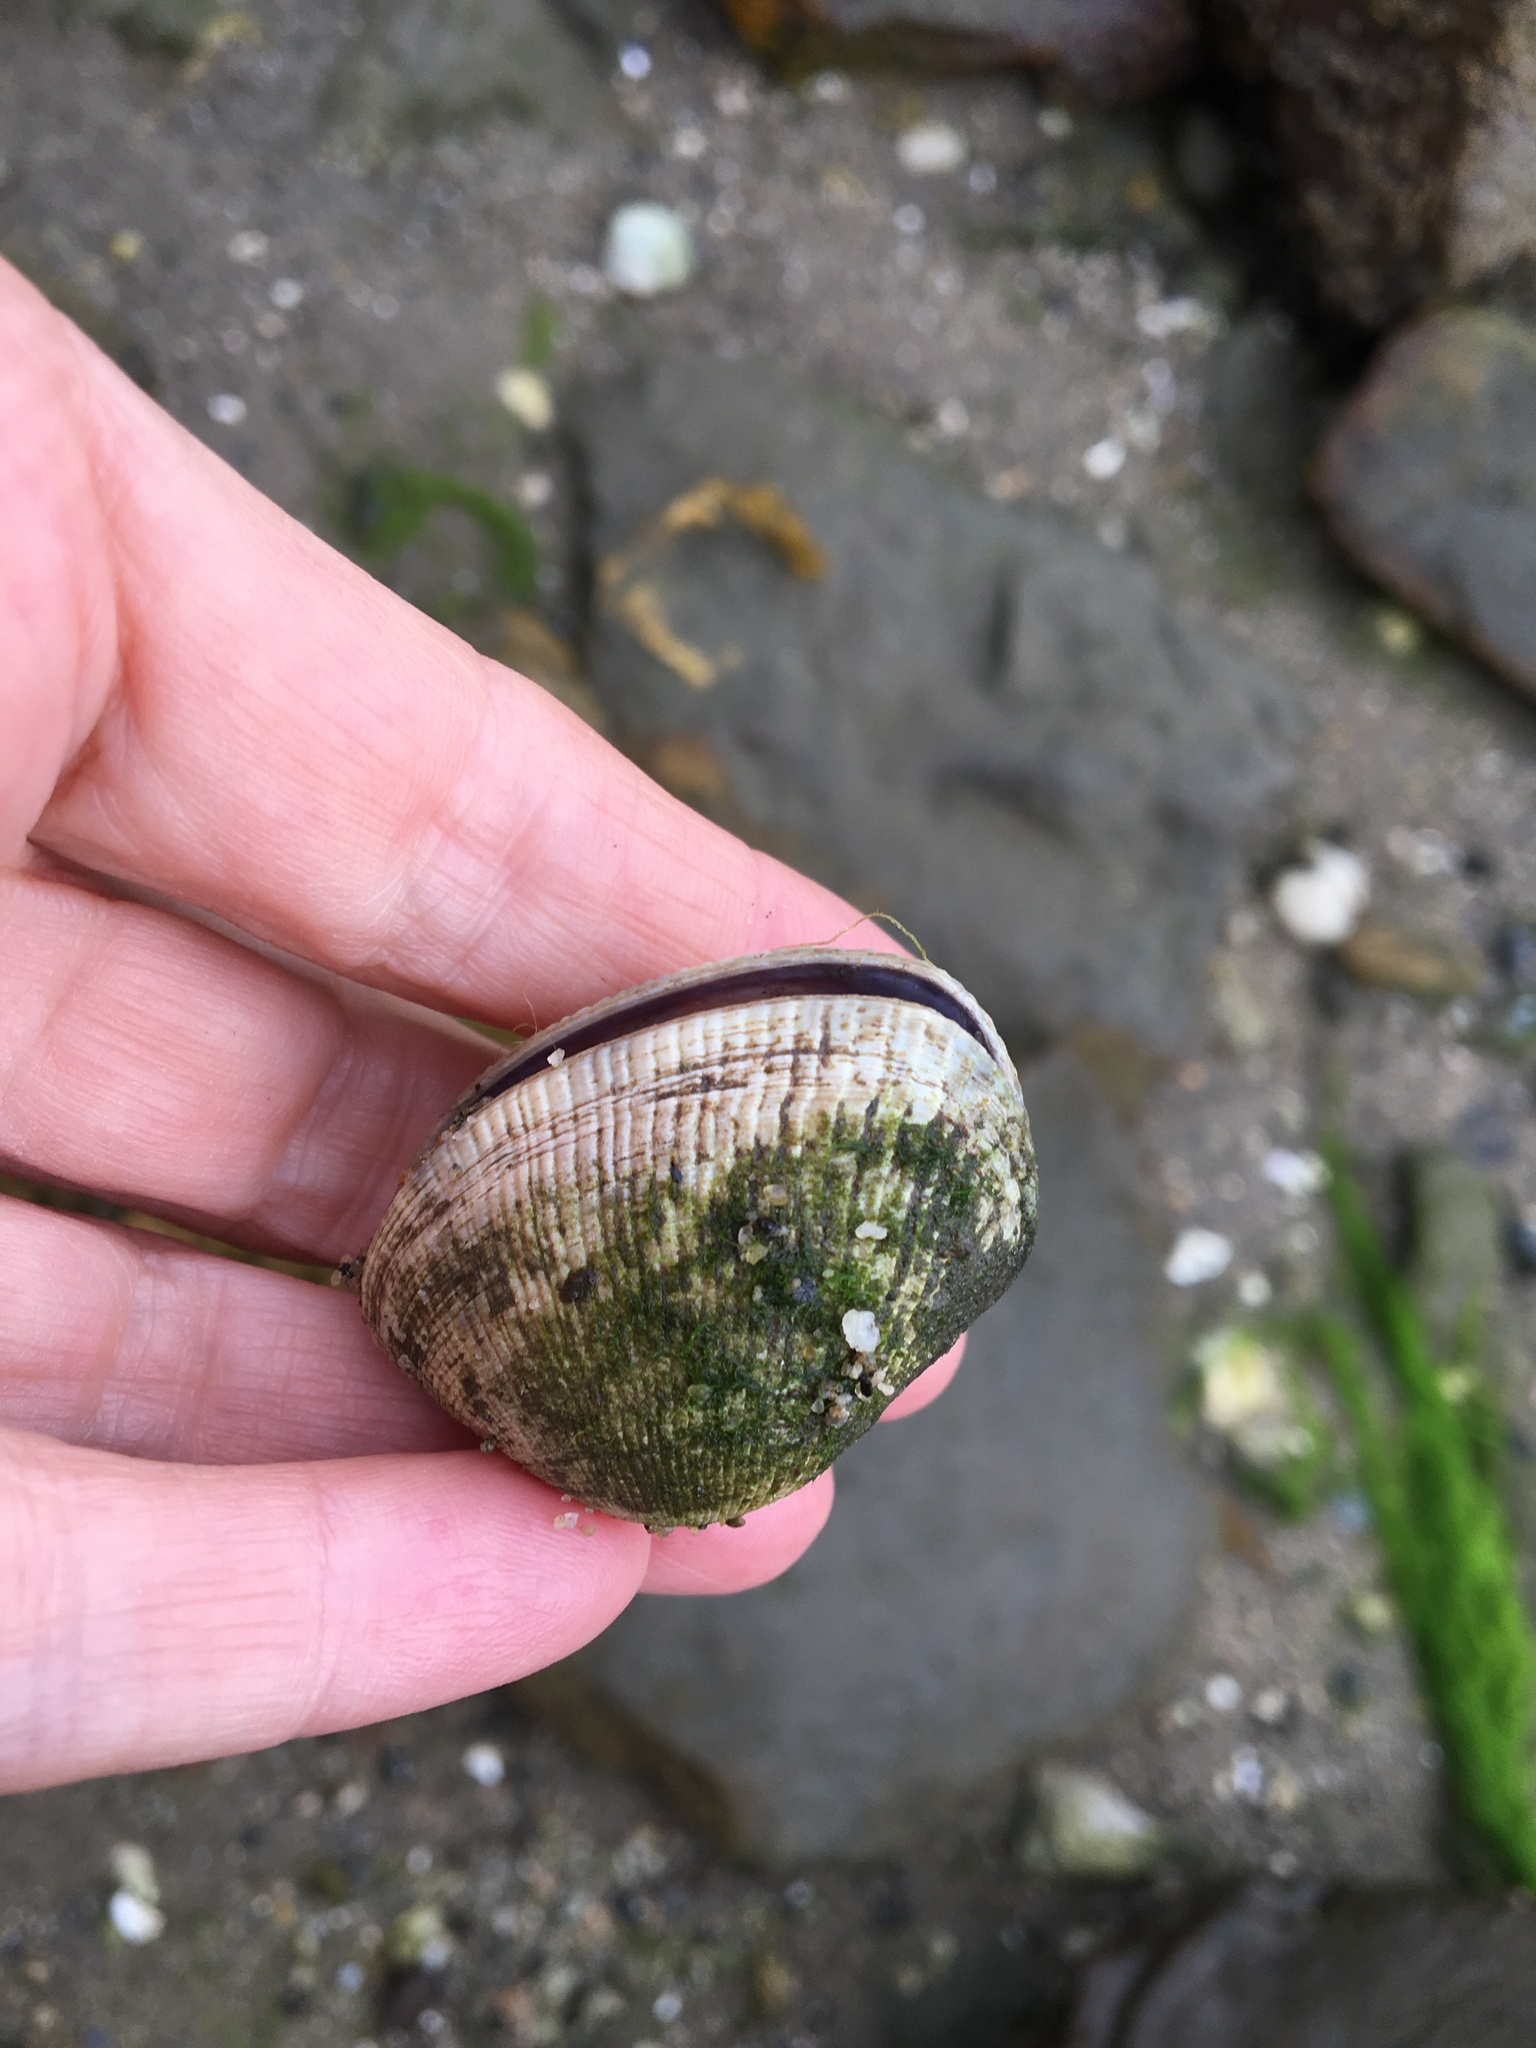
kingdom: Animalia
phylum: Mollusca
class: Bivalvia
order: Venerida
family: Veneridae
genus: Ruditapes
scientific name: Ruditapes philippinarum
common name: Manila clam
